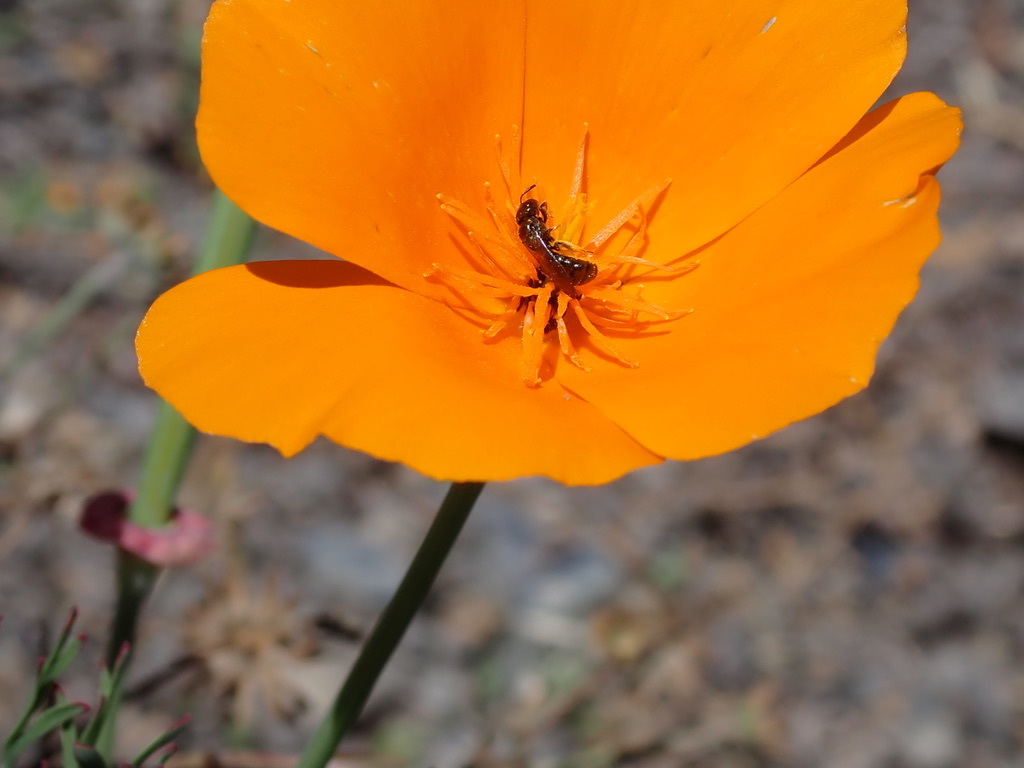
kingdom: Plantae
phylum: Tracheophyta
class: Magnoliopsida
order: Ranunculales
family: Papaveraceae
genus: Eschscholzia
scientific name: Eschscholzia californica
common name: California poppy
